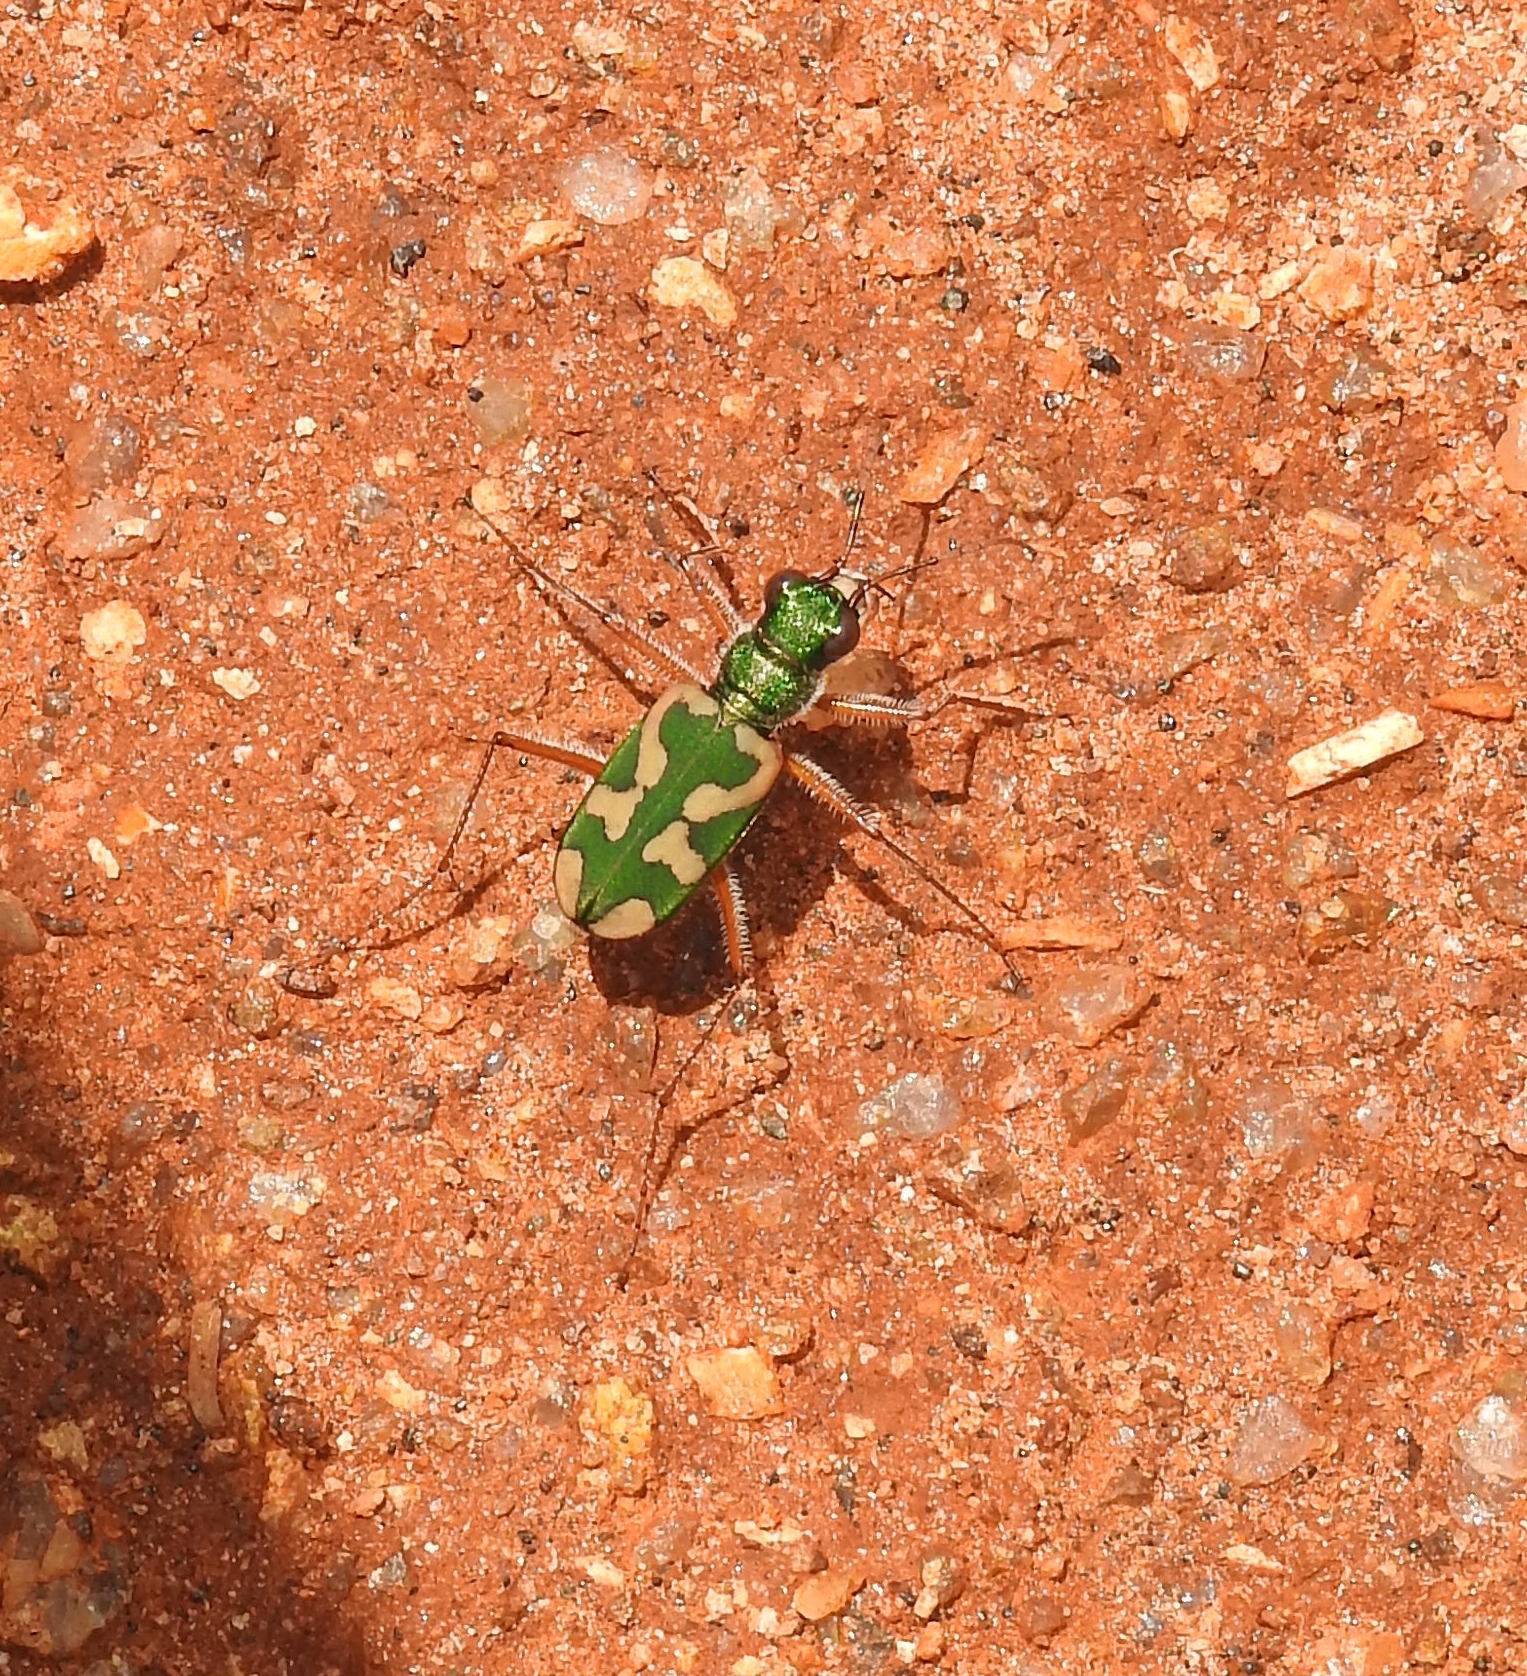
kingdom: Animalia
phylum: Arthropoda
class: Insecta
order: Coleoptera
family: Carabidae
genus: Cicindela
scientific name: Cicindela calligramma
